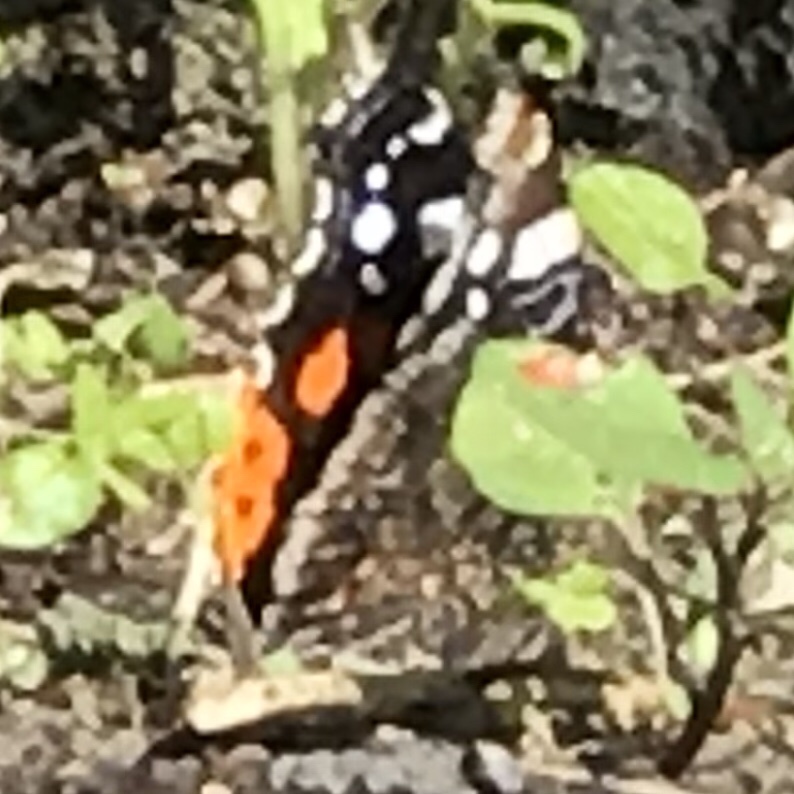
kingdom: Animalia
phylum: Arthropoda
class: Insecta
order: Lepidoptera
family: Nymphalidae
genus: Vanessa
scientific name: Vanessa atalanta
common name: Red admiral
